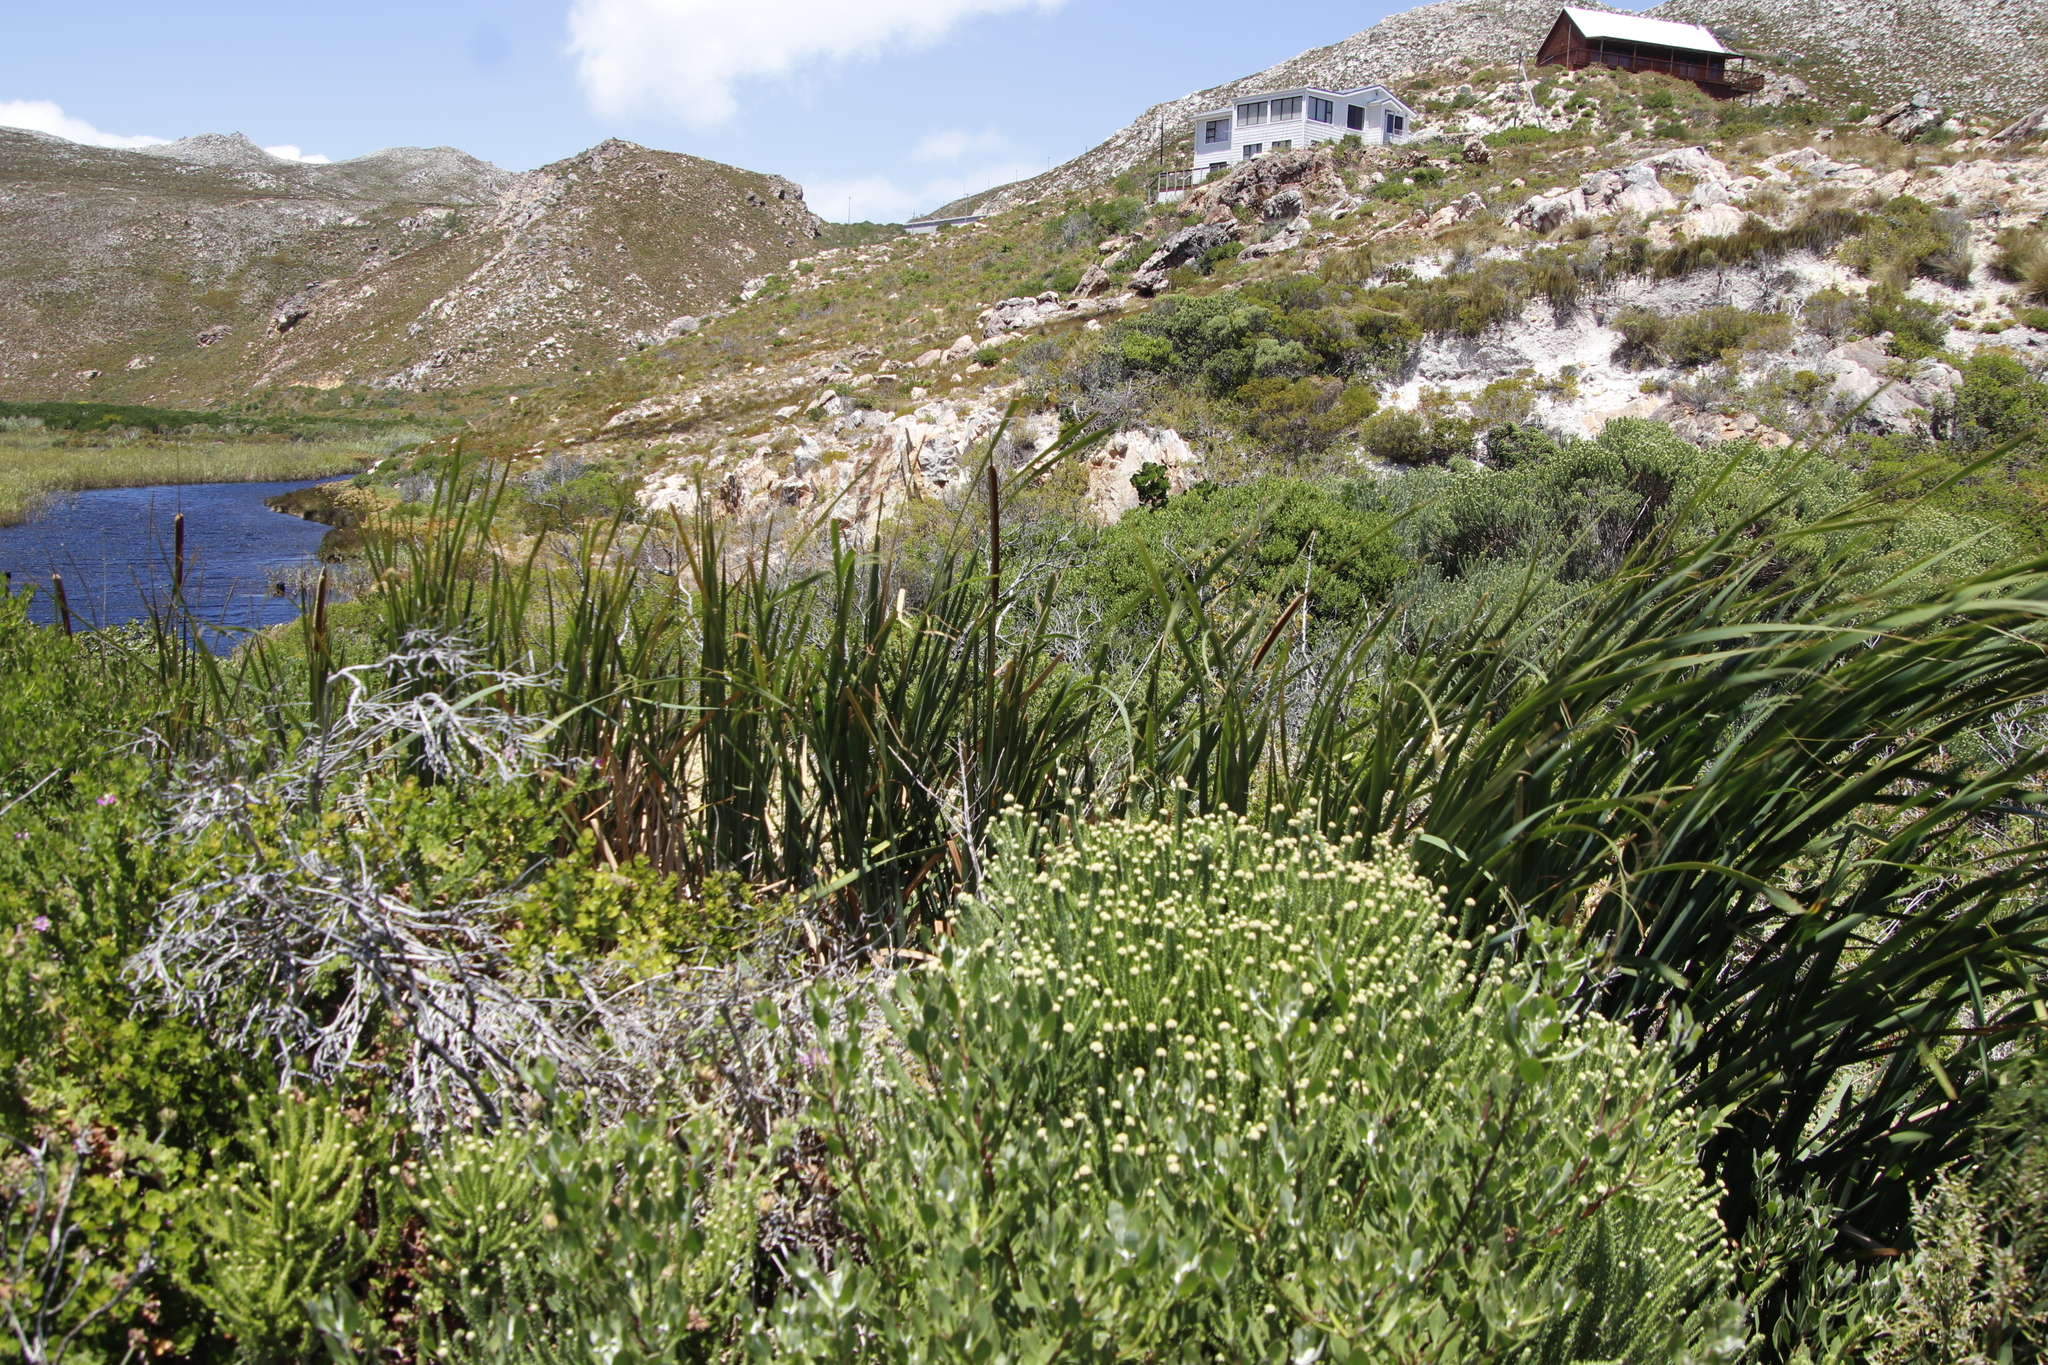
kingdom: Plantae
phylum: Tracheophyta
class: Liliopsida
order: Poales
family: Typhaceae
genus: Typha
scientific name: Typha capensis
